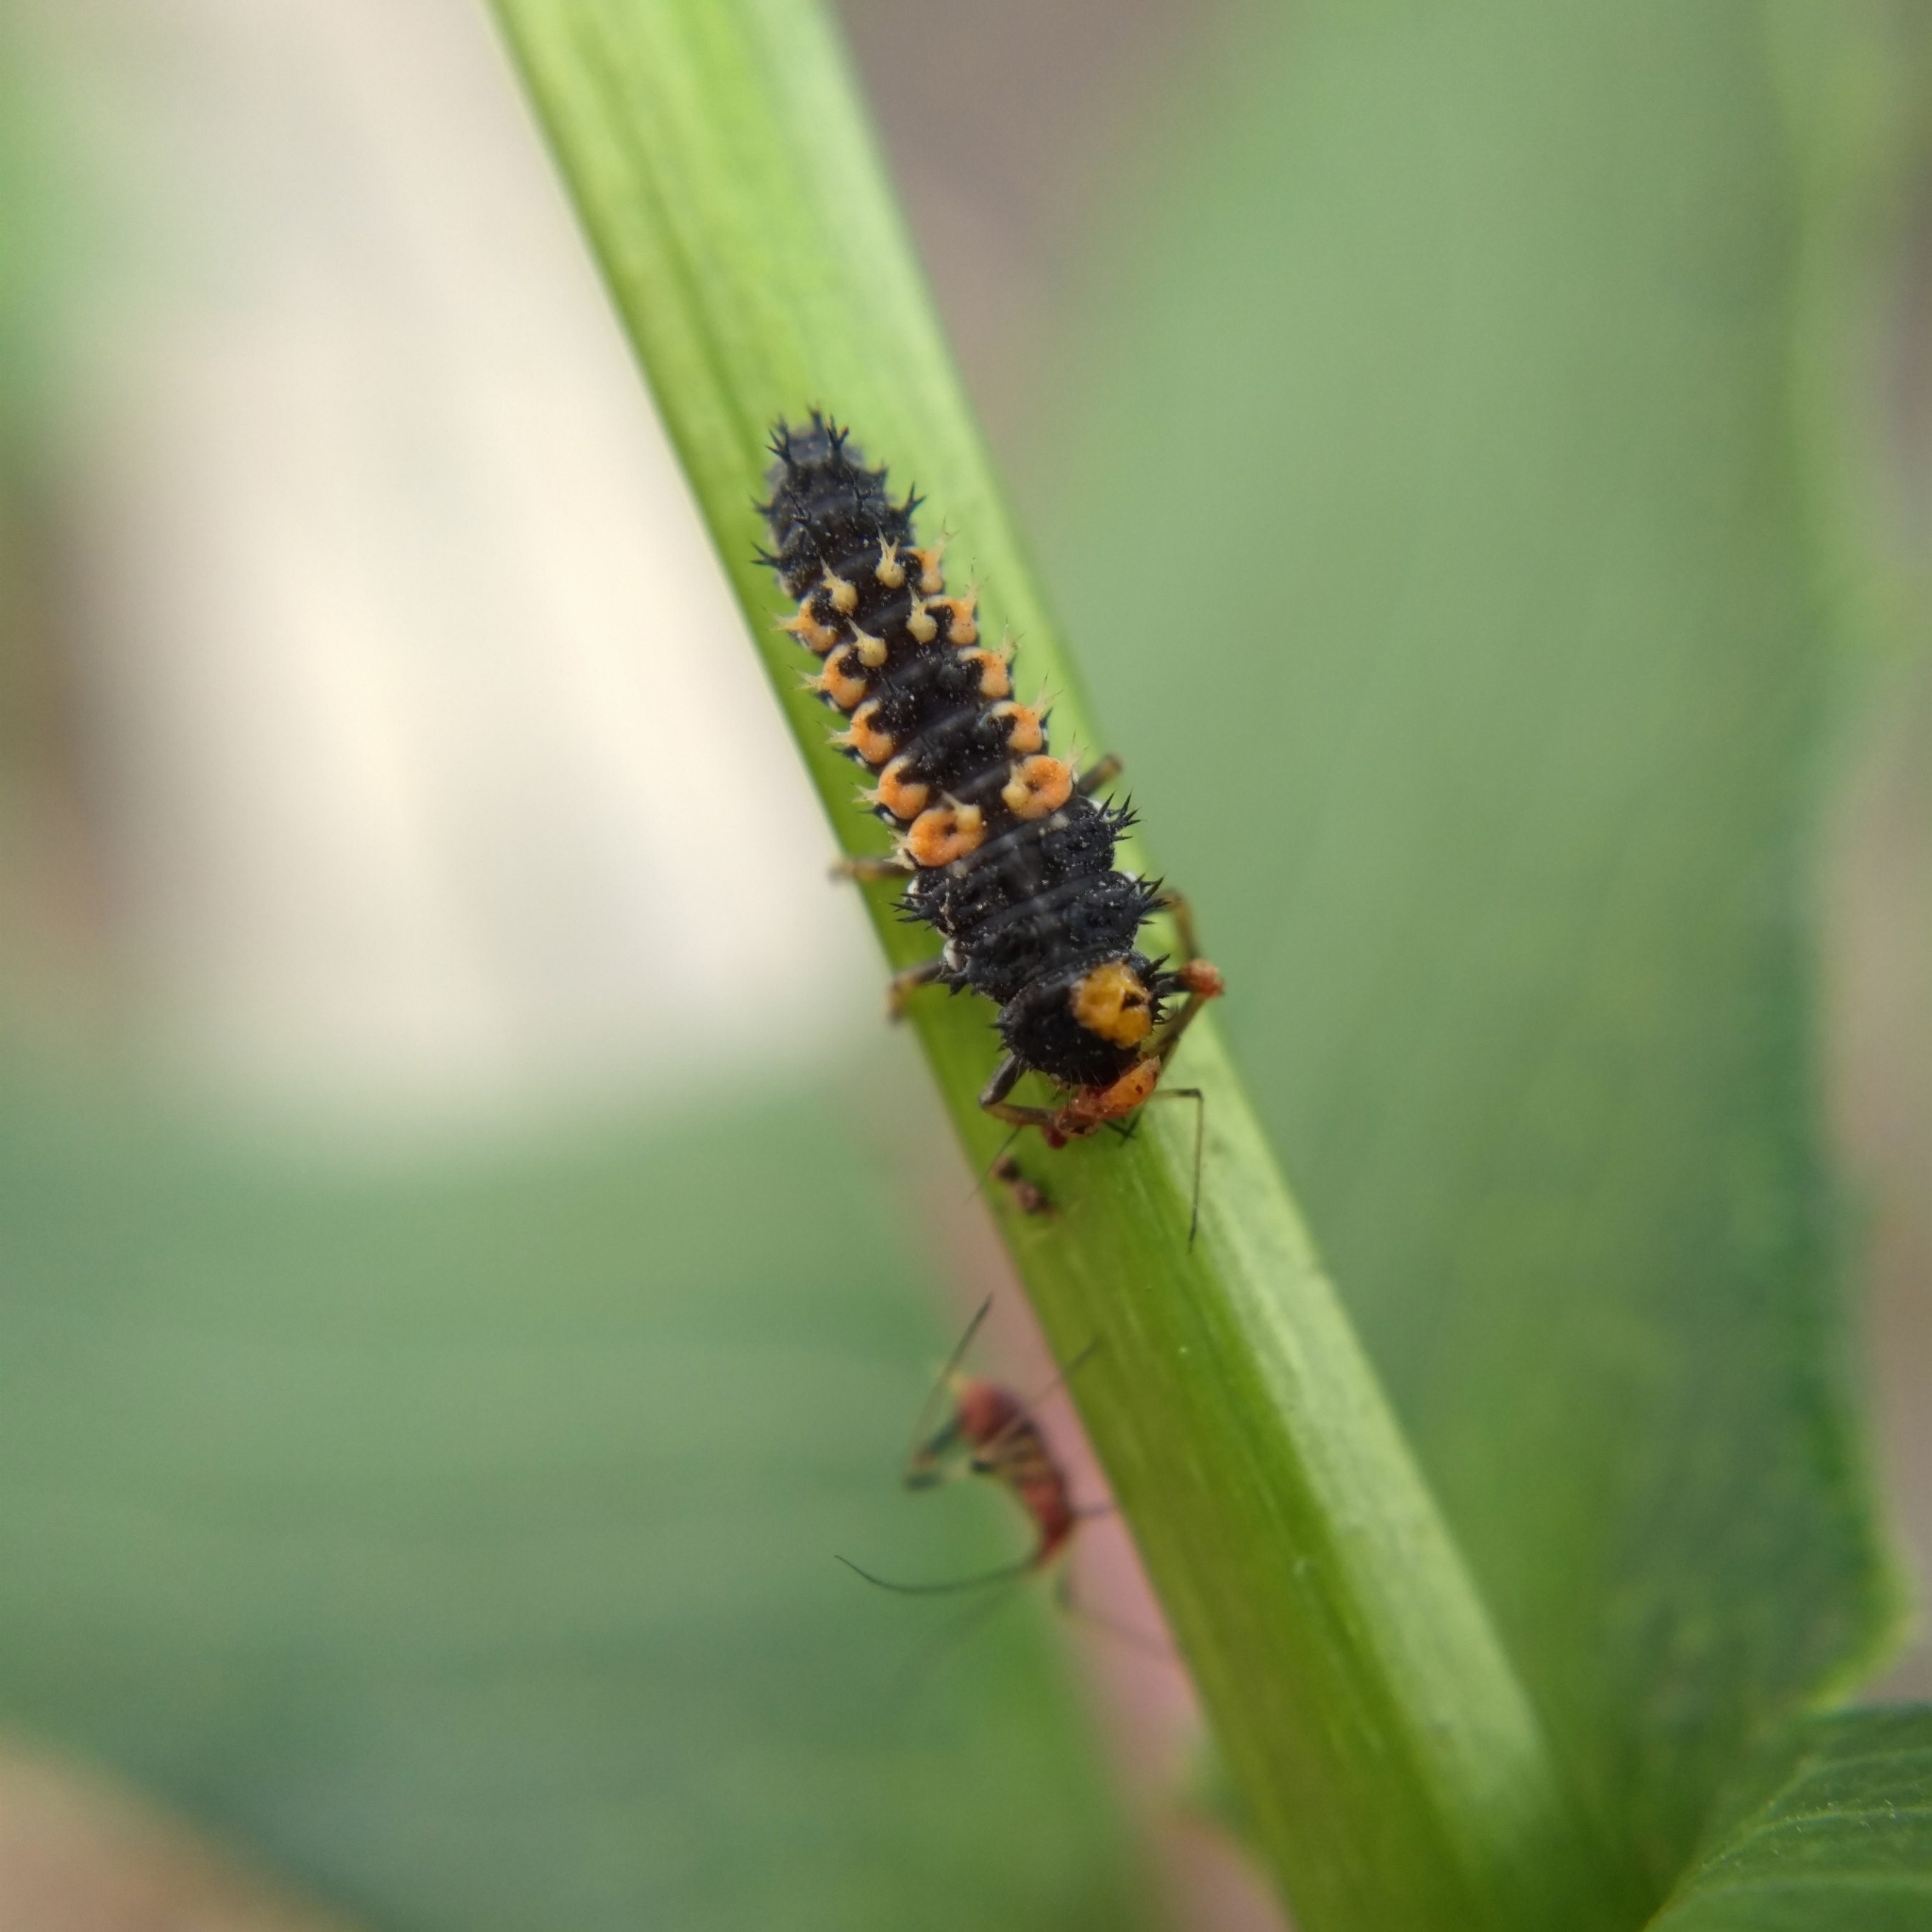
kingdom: Animalia
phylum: Arthropoda
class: Insecta
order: Coleoptera
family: Coccinellidae
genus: Harmonia
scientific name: Harmonia axyridis
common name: Harlequin ladybird
